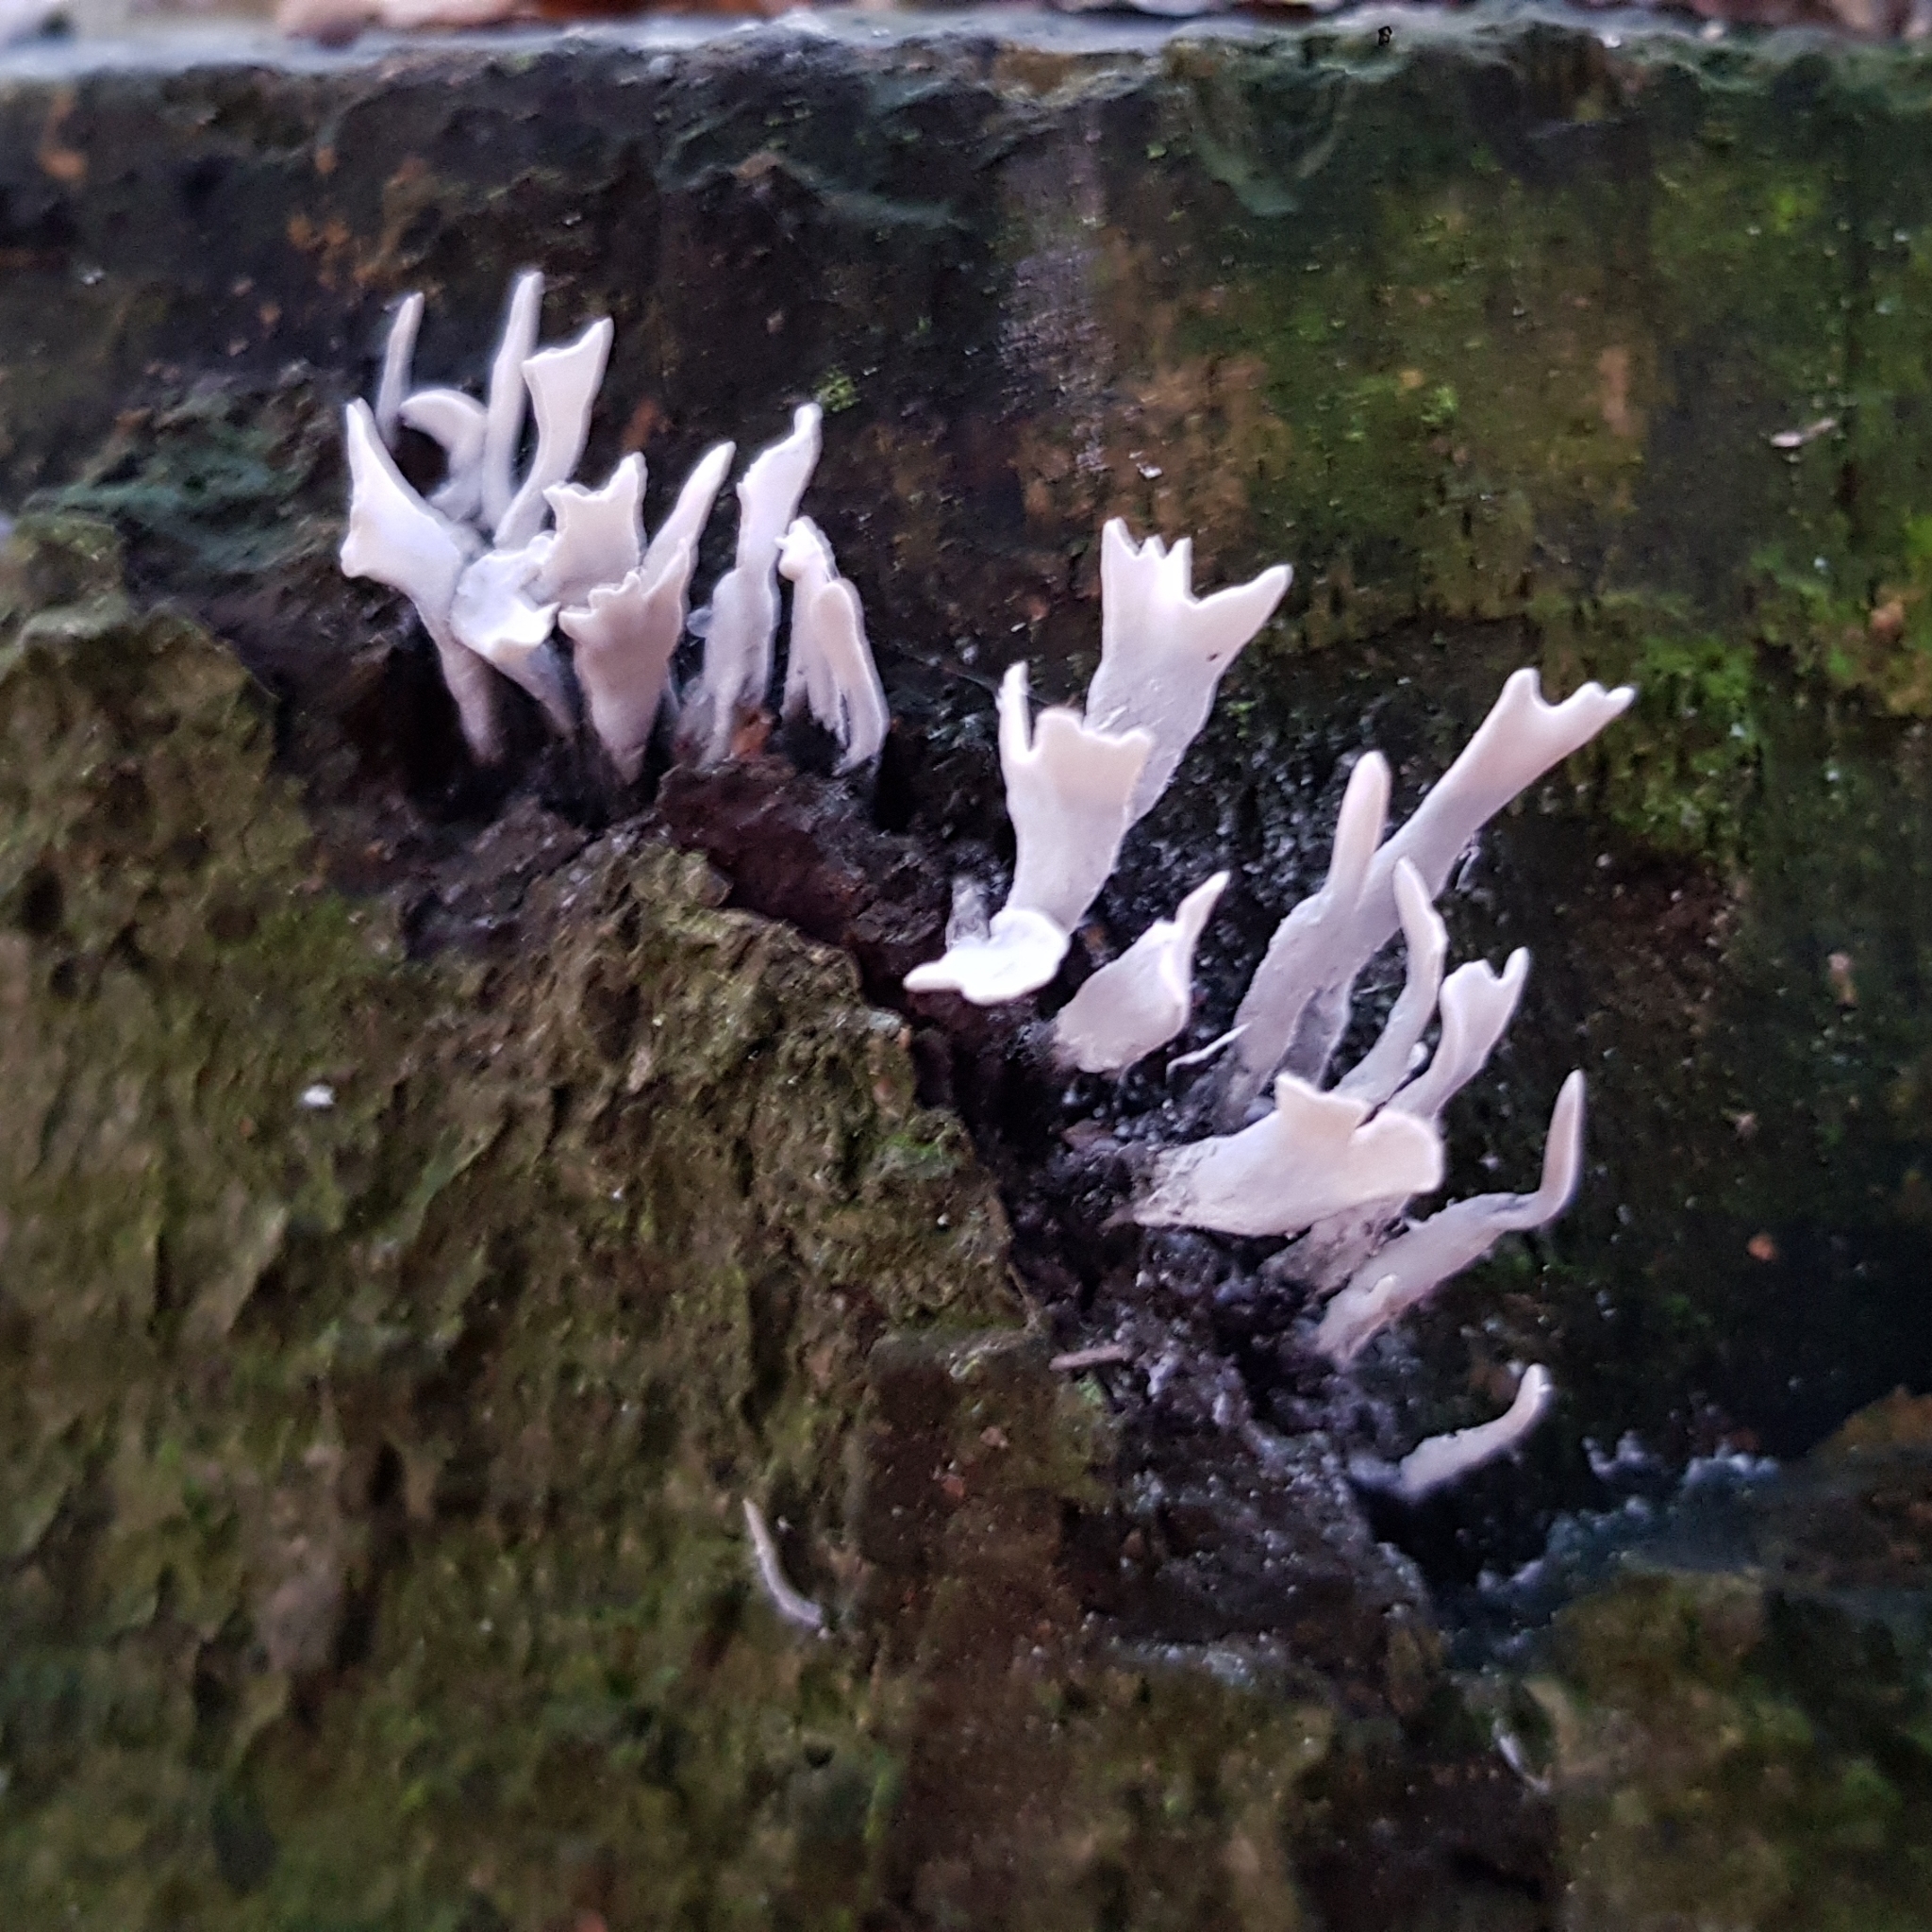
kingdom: Fungi
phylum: Ascomycota
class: Sordariomycetes
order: Xylariales
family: Xylariaceae
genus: Xylaria
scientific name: Xylaria hypoxylon
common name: Candle-snuff fungus
